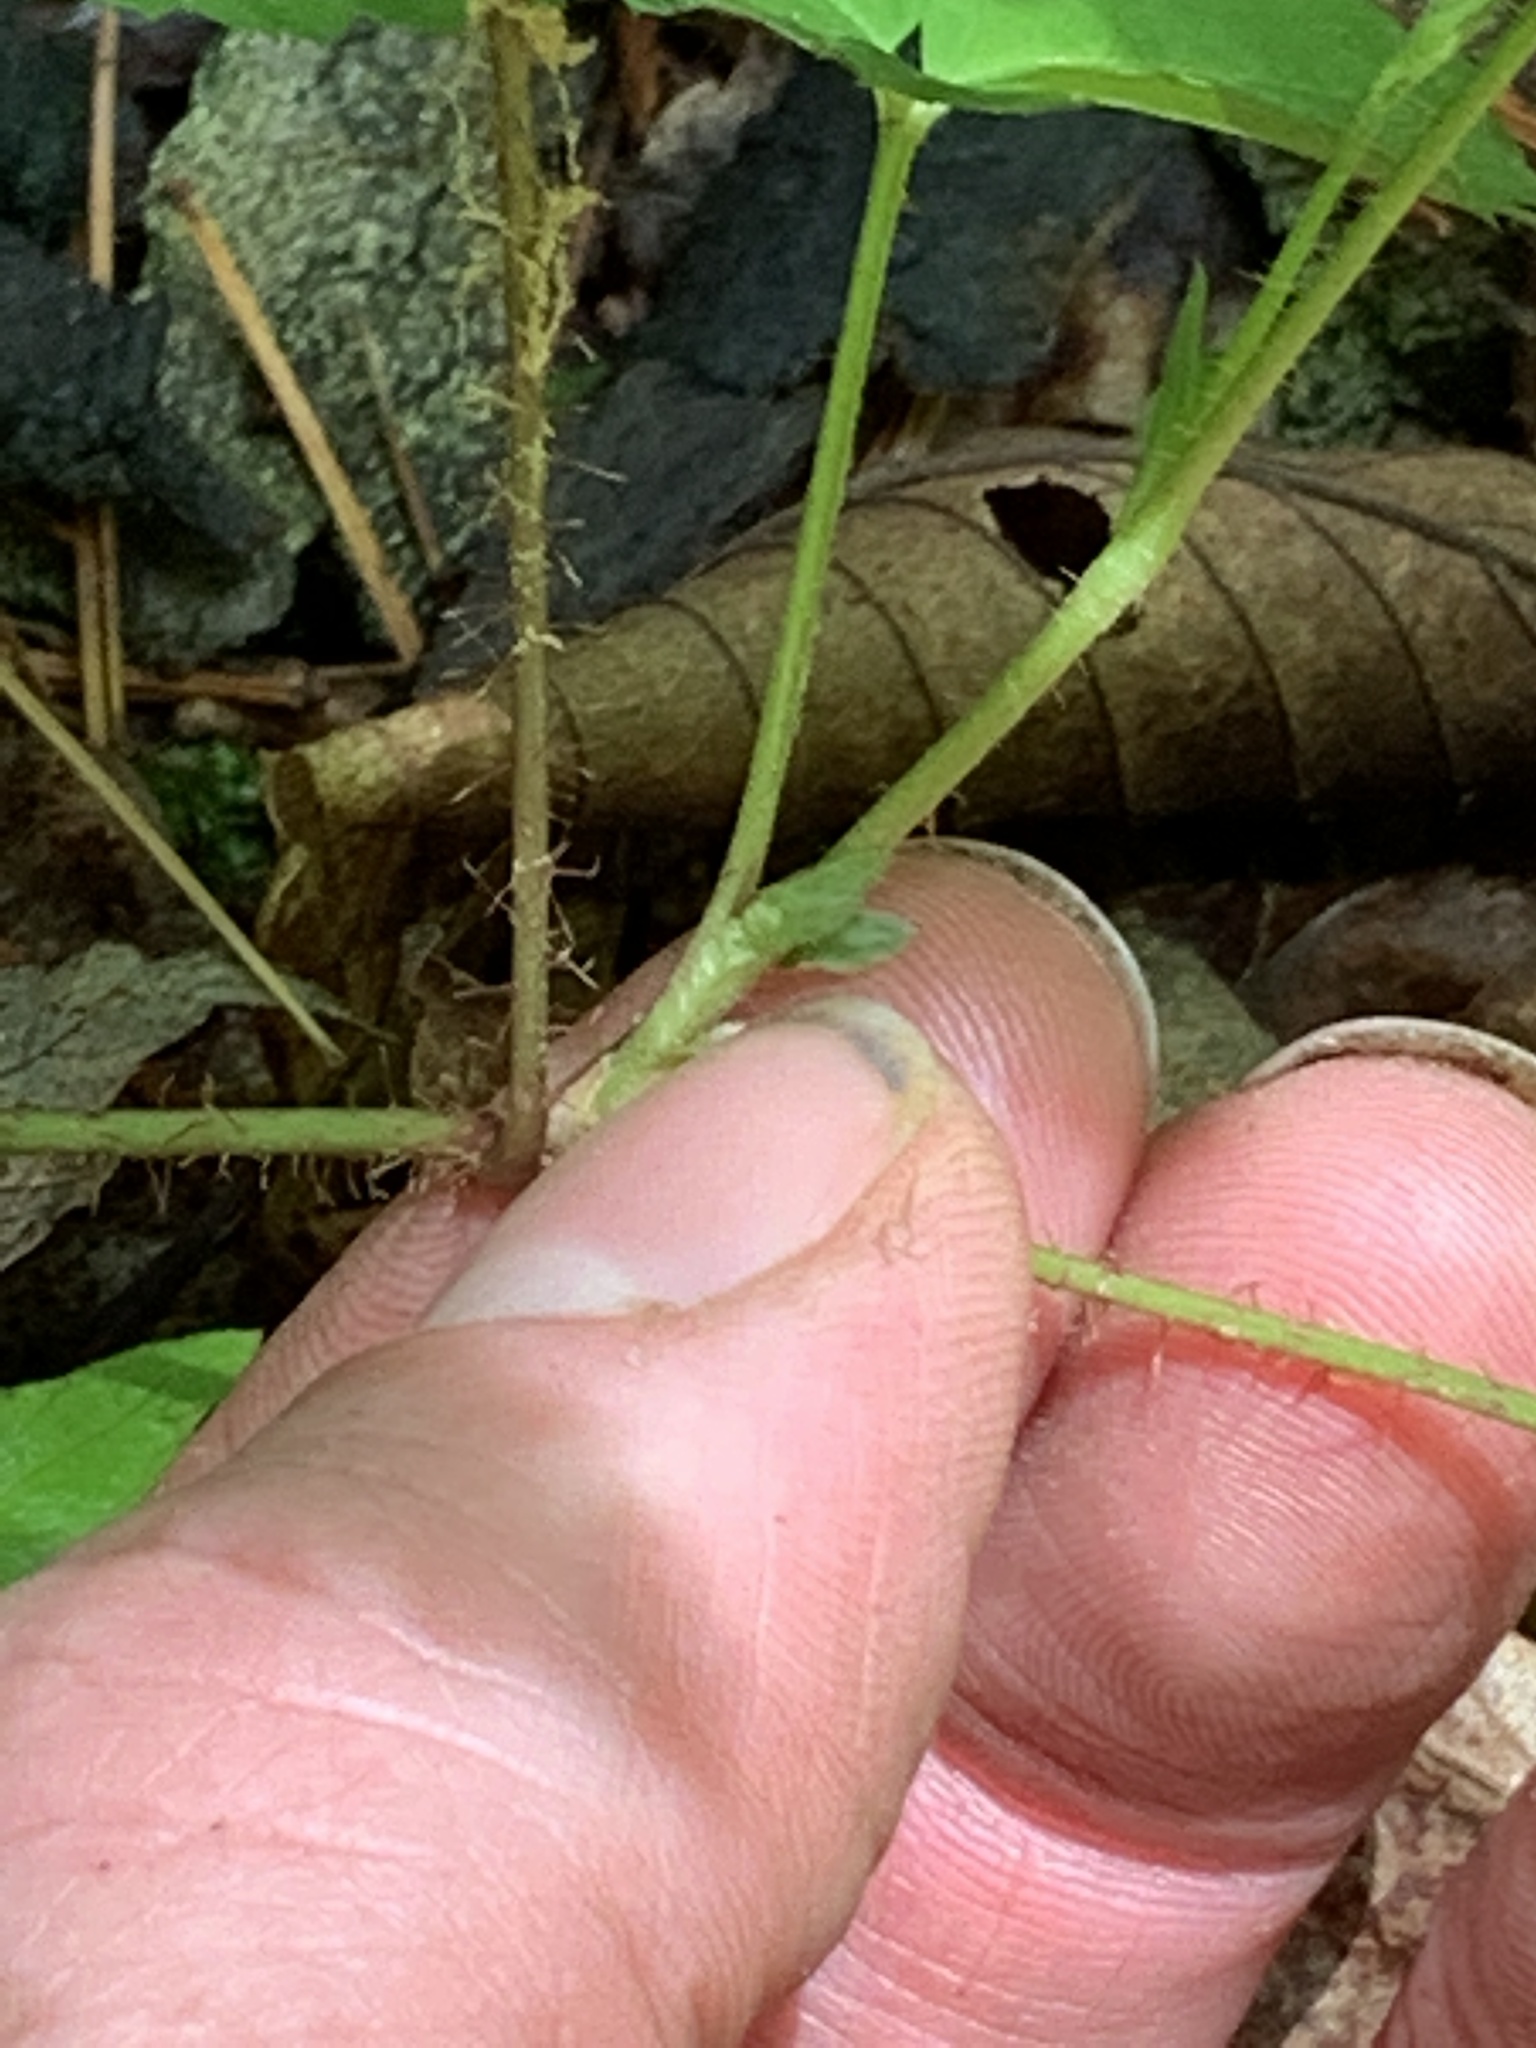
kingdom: Plantae
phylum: Tracheophyta
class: Magnoliopsida
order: Rosales
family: Rosaceae
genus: Rubus
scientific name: Rubus hispidus
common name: Running blackberry
